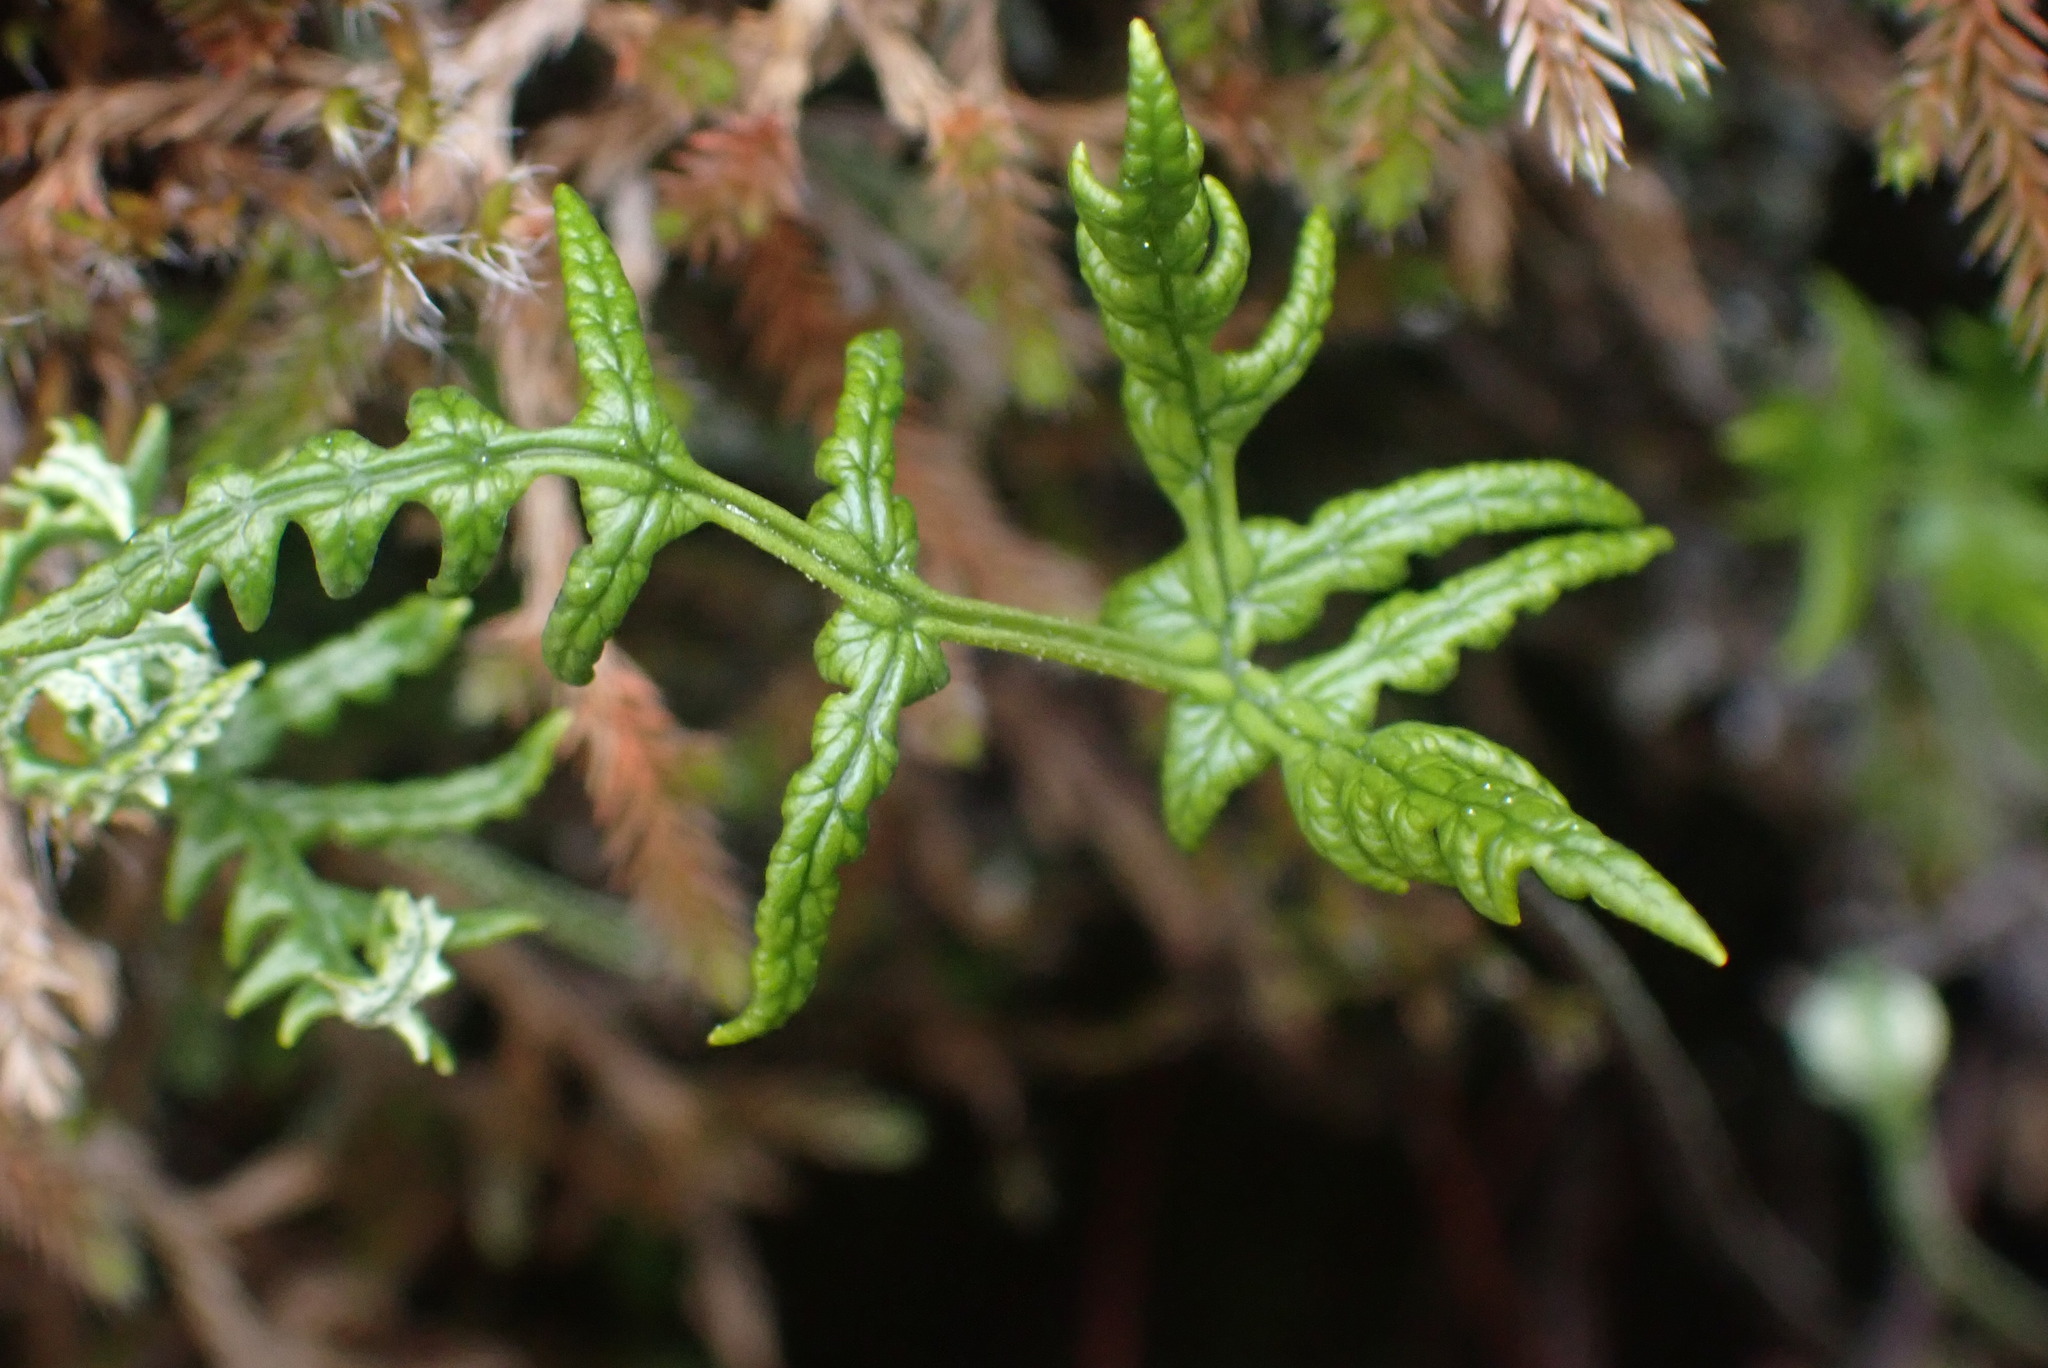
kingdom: Plantae
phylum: Tracheophyta
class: Polypodiopsida
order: Polypodiales
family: Pteridaceae
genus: Pentagramma
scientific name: Pentagramma triangularis
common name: Gold fern
